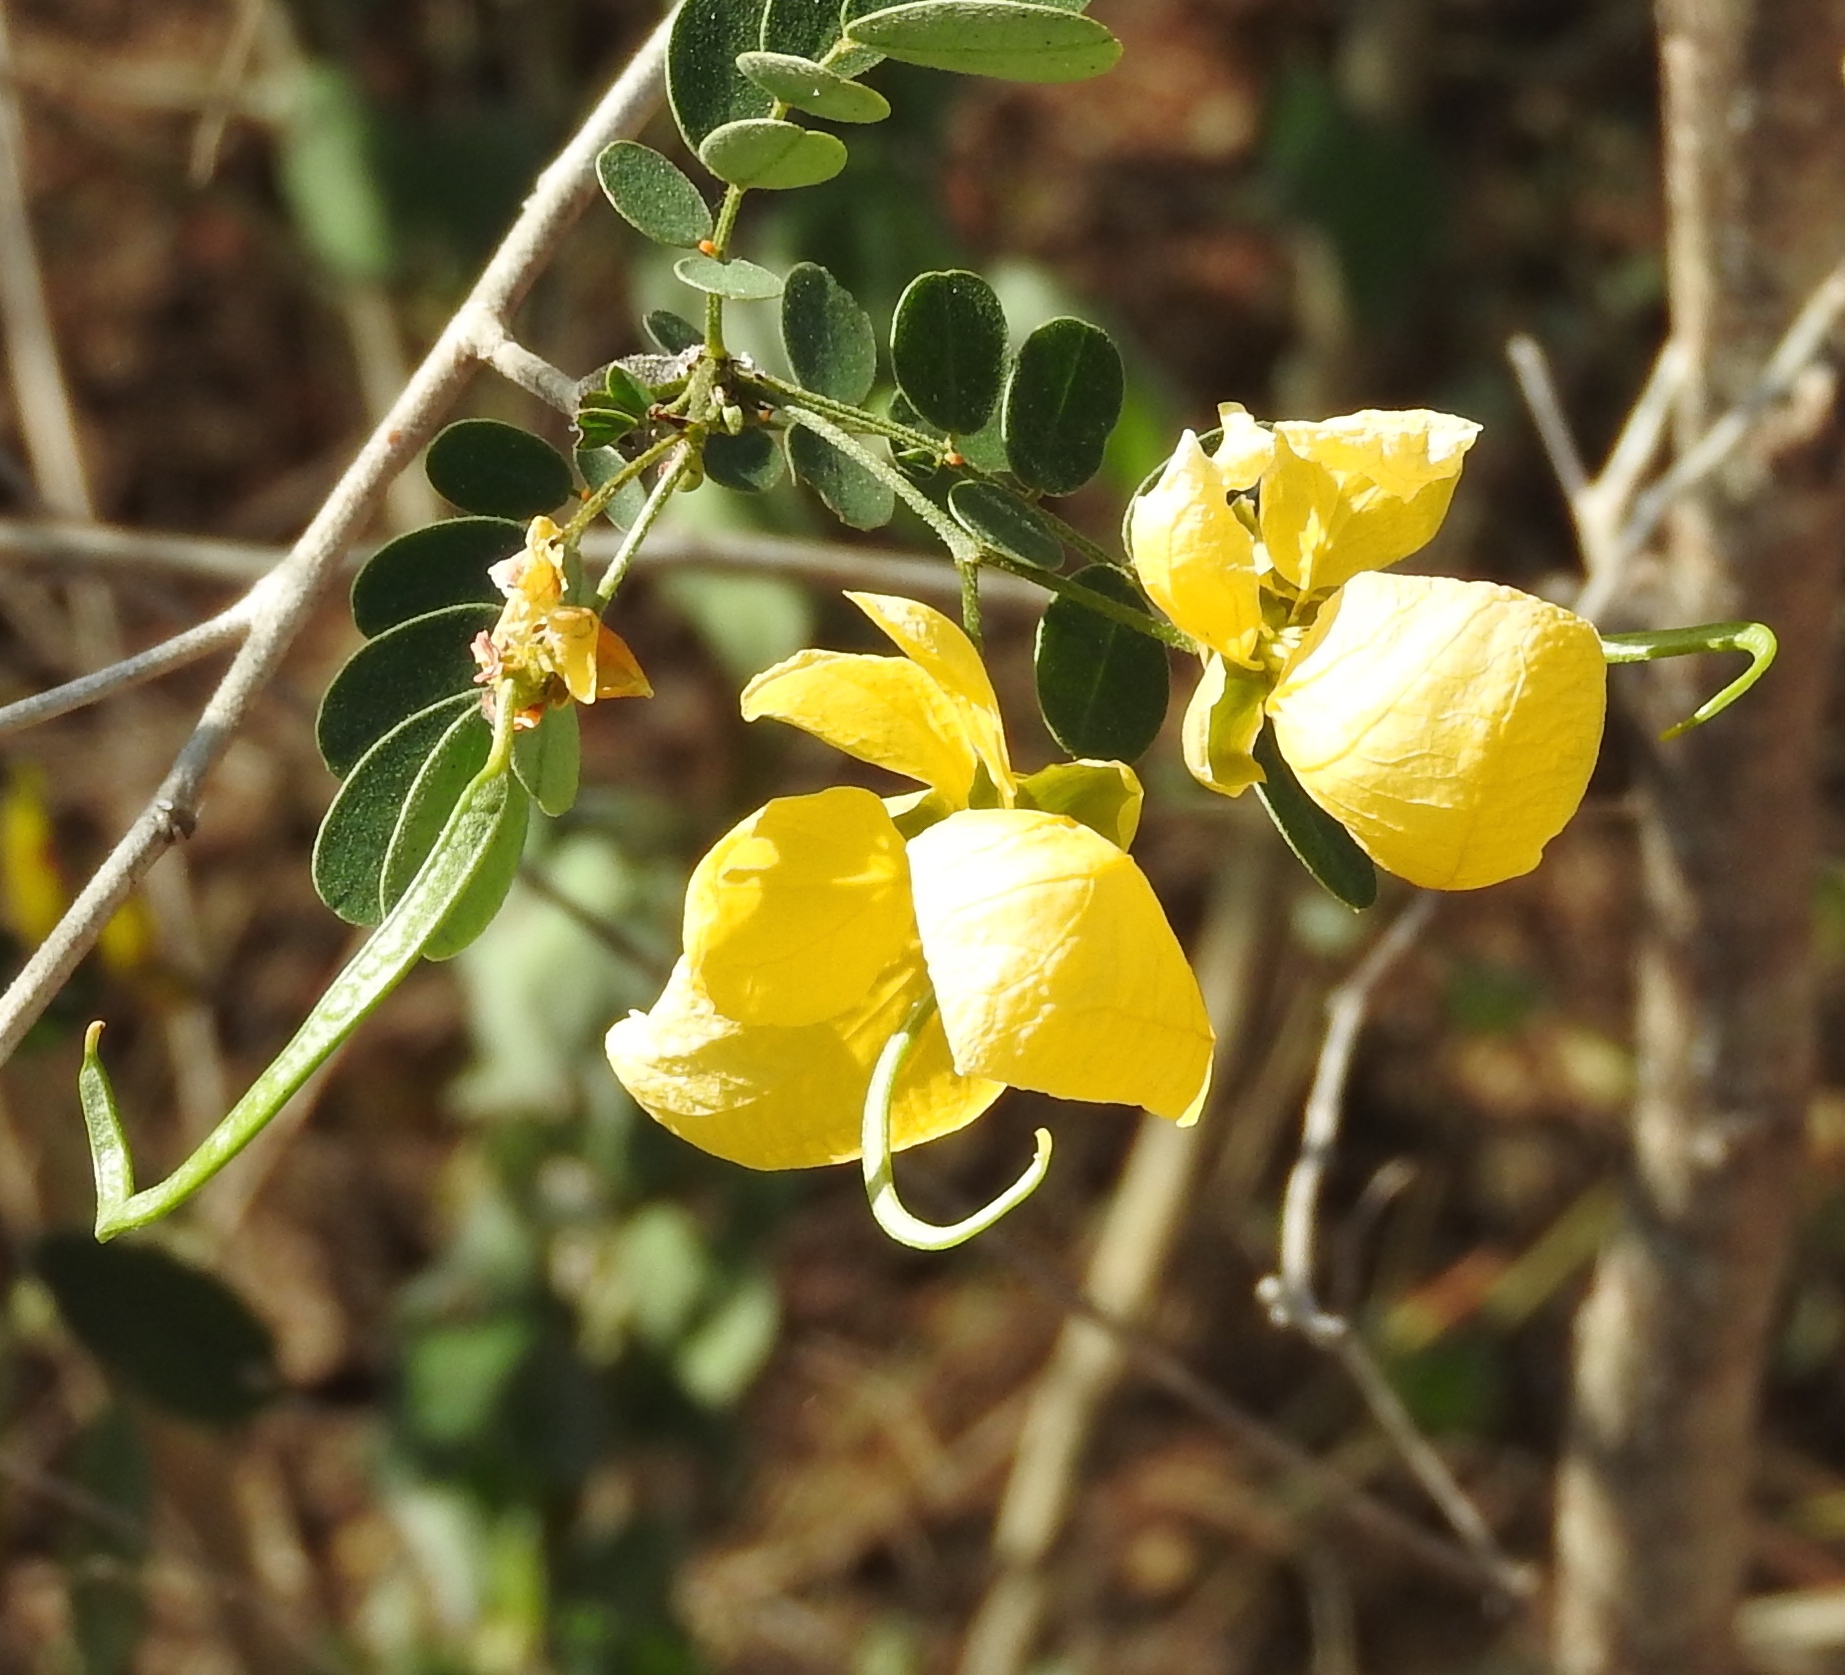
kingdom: Plantae
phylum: Tracheophyta
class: Magnoliopsida
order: Fabales
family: Fabaceae
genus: Senna
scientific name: Senna pallida
